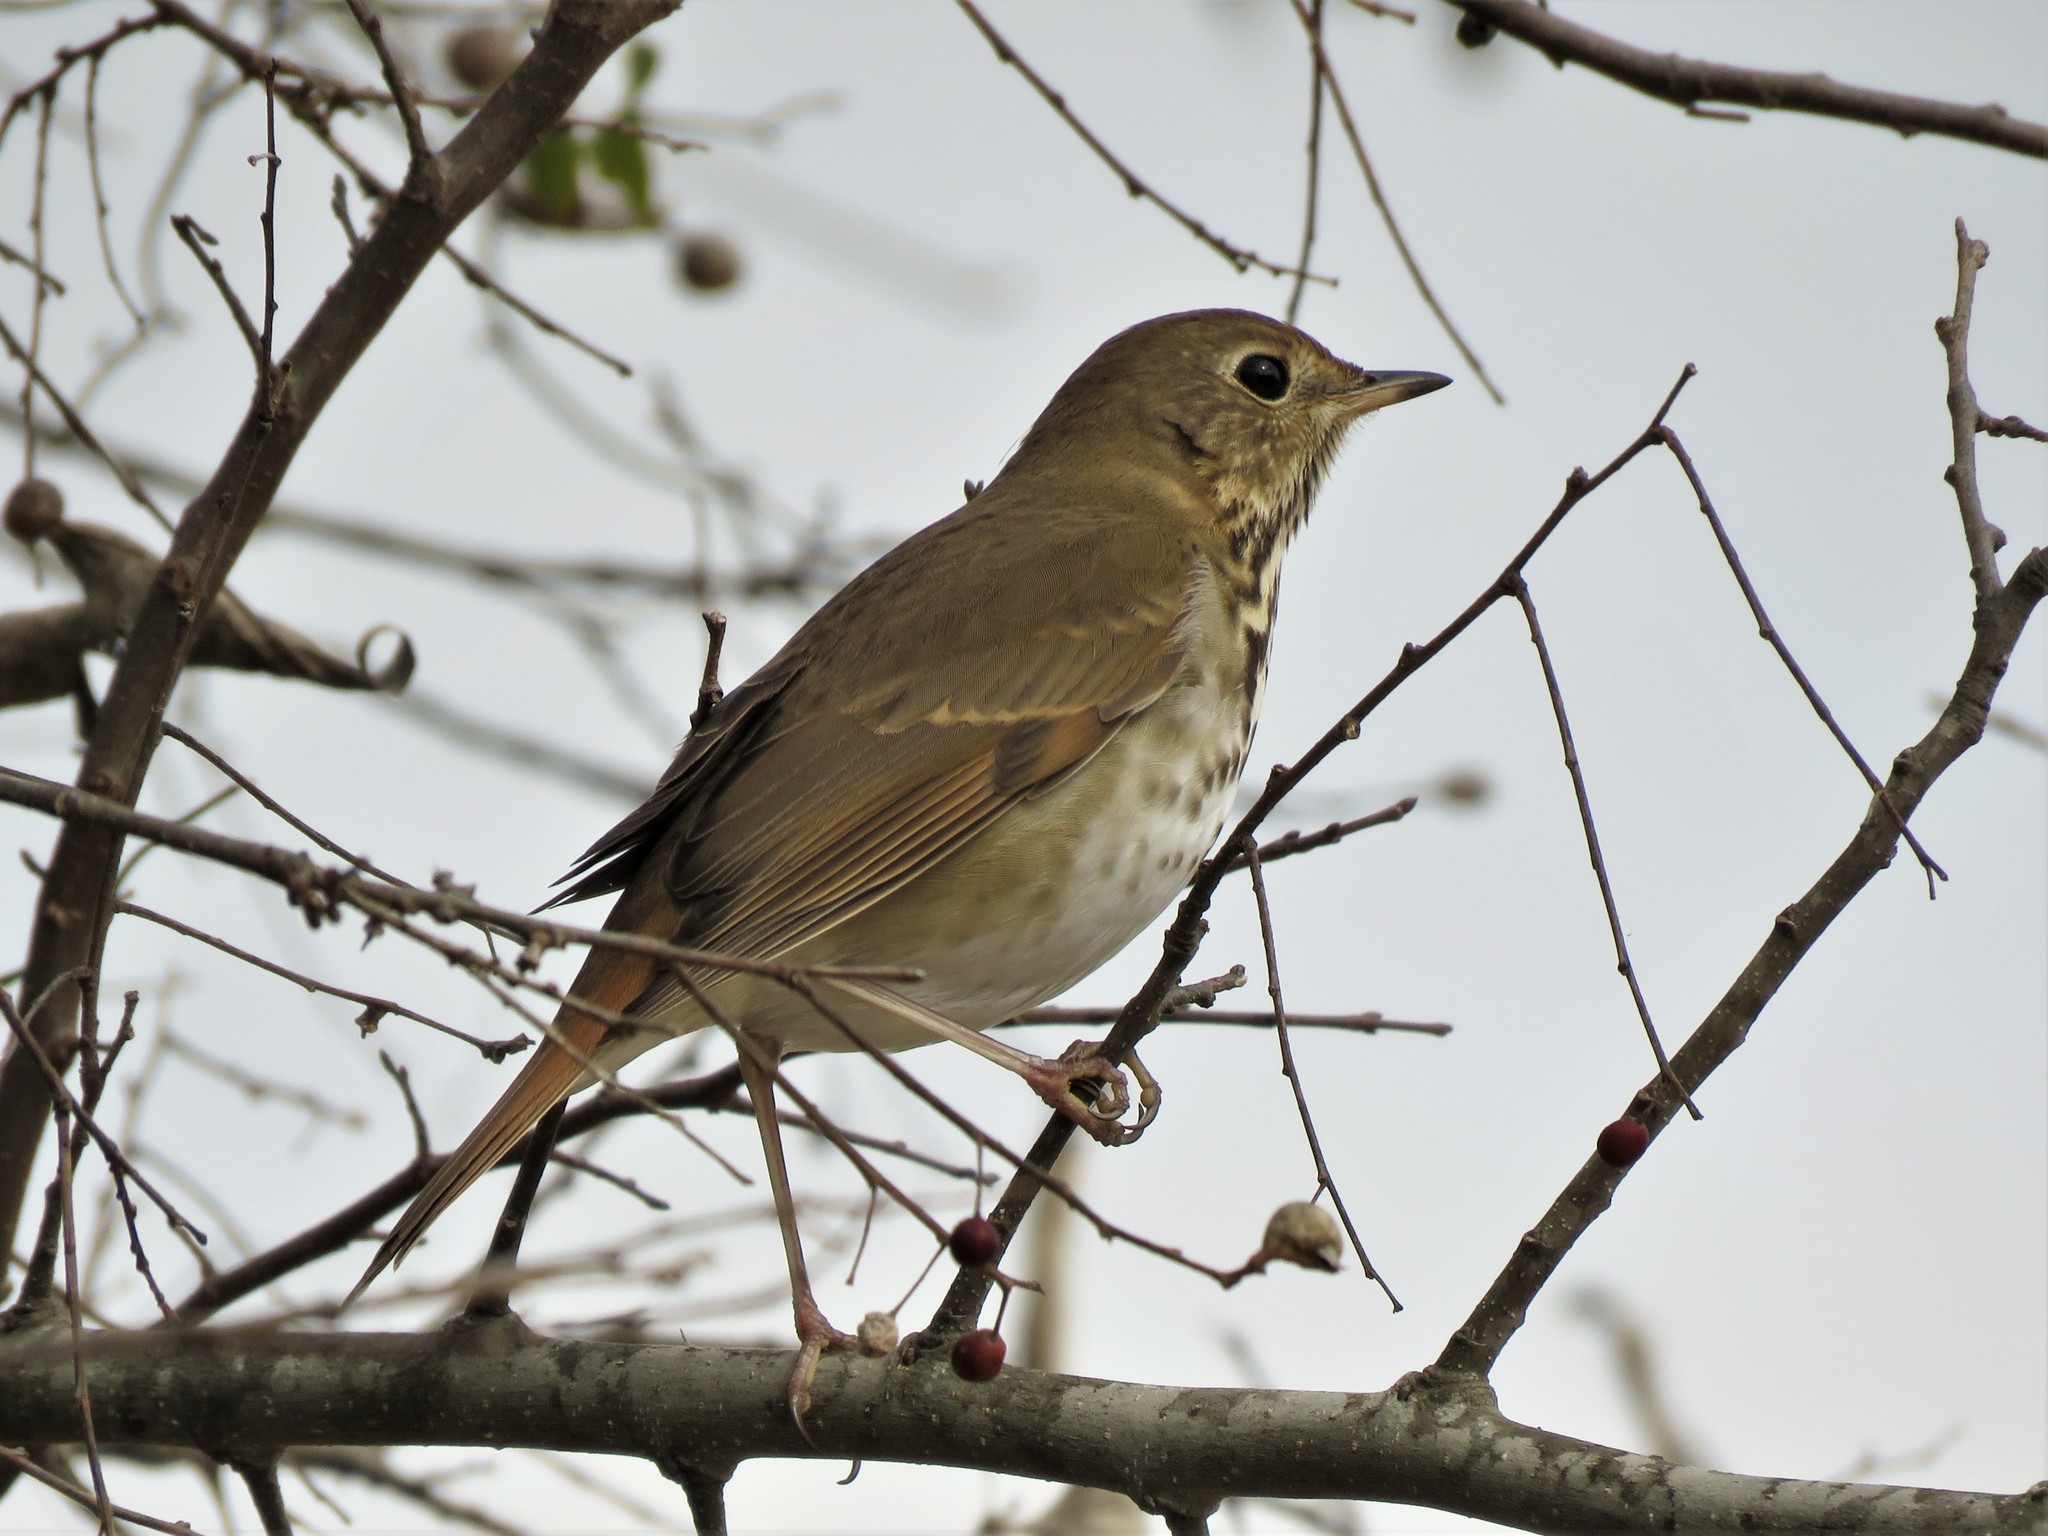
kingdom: Animalia
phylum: Chordata
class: Aves
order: Passeriformes
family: Turdidae
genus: Catharus
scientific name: Catharus guttatus
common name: Hermit thrush
